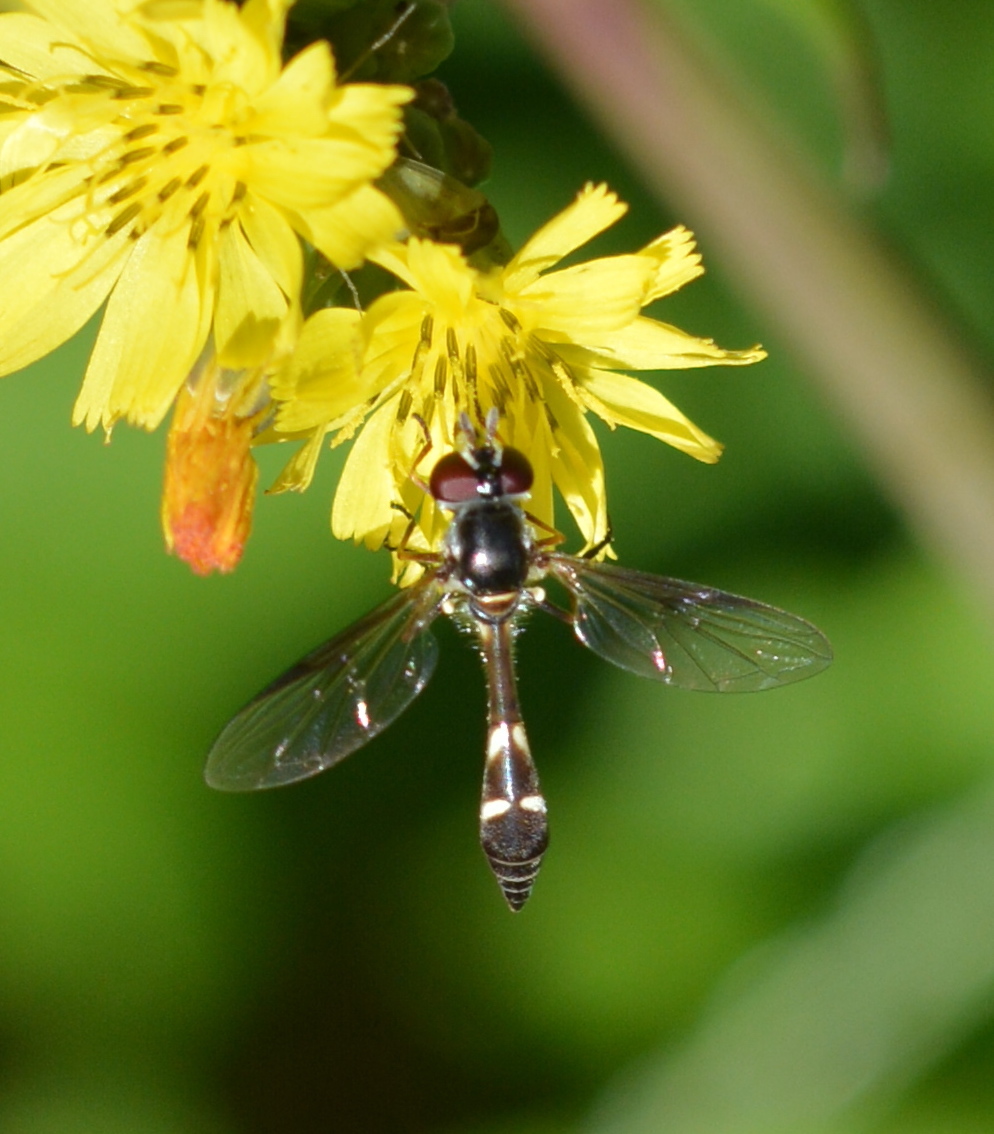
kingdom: Animalia
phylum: Arthropoda
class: Insecta
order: Diptera
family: Syrphidae
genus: Dioprosopa
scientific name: Dioprosopa clavatus
